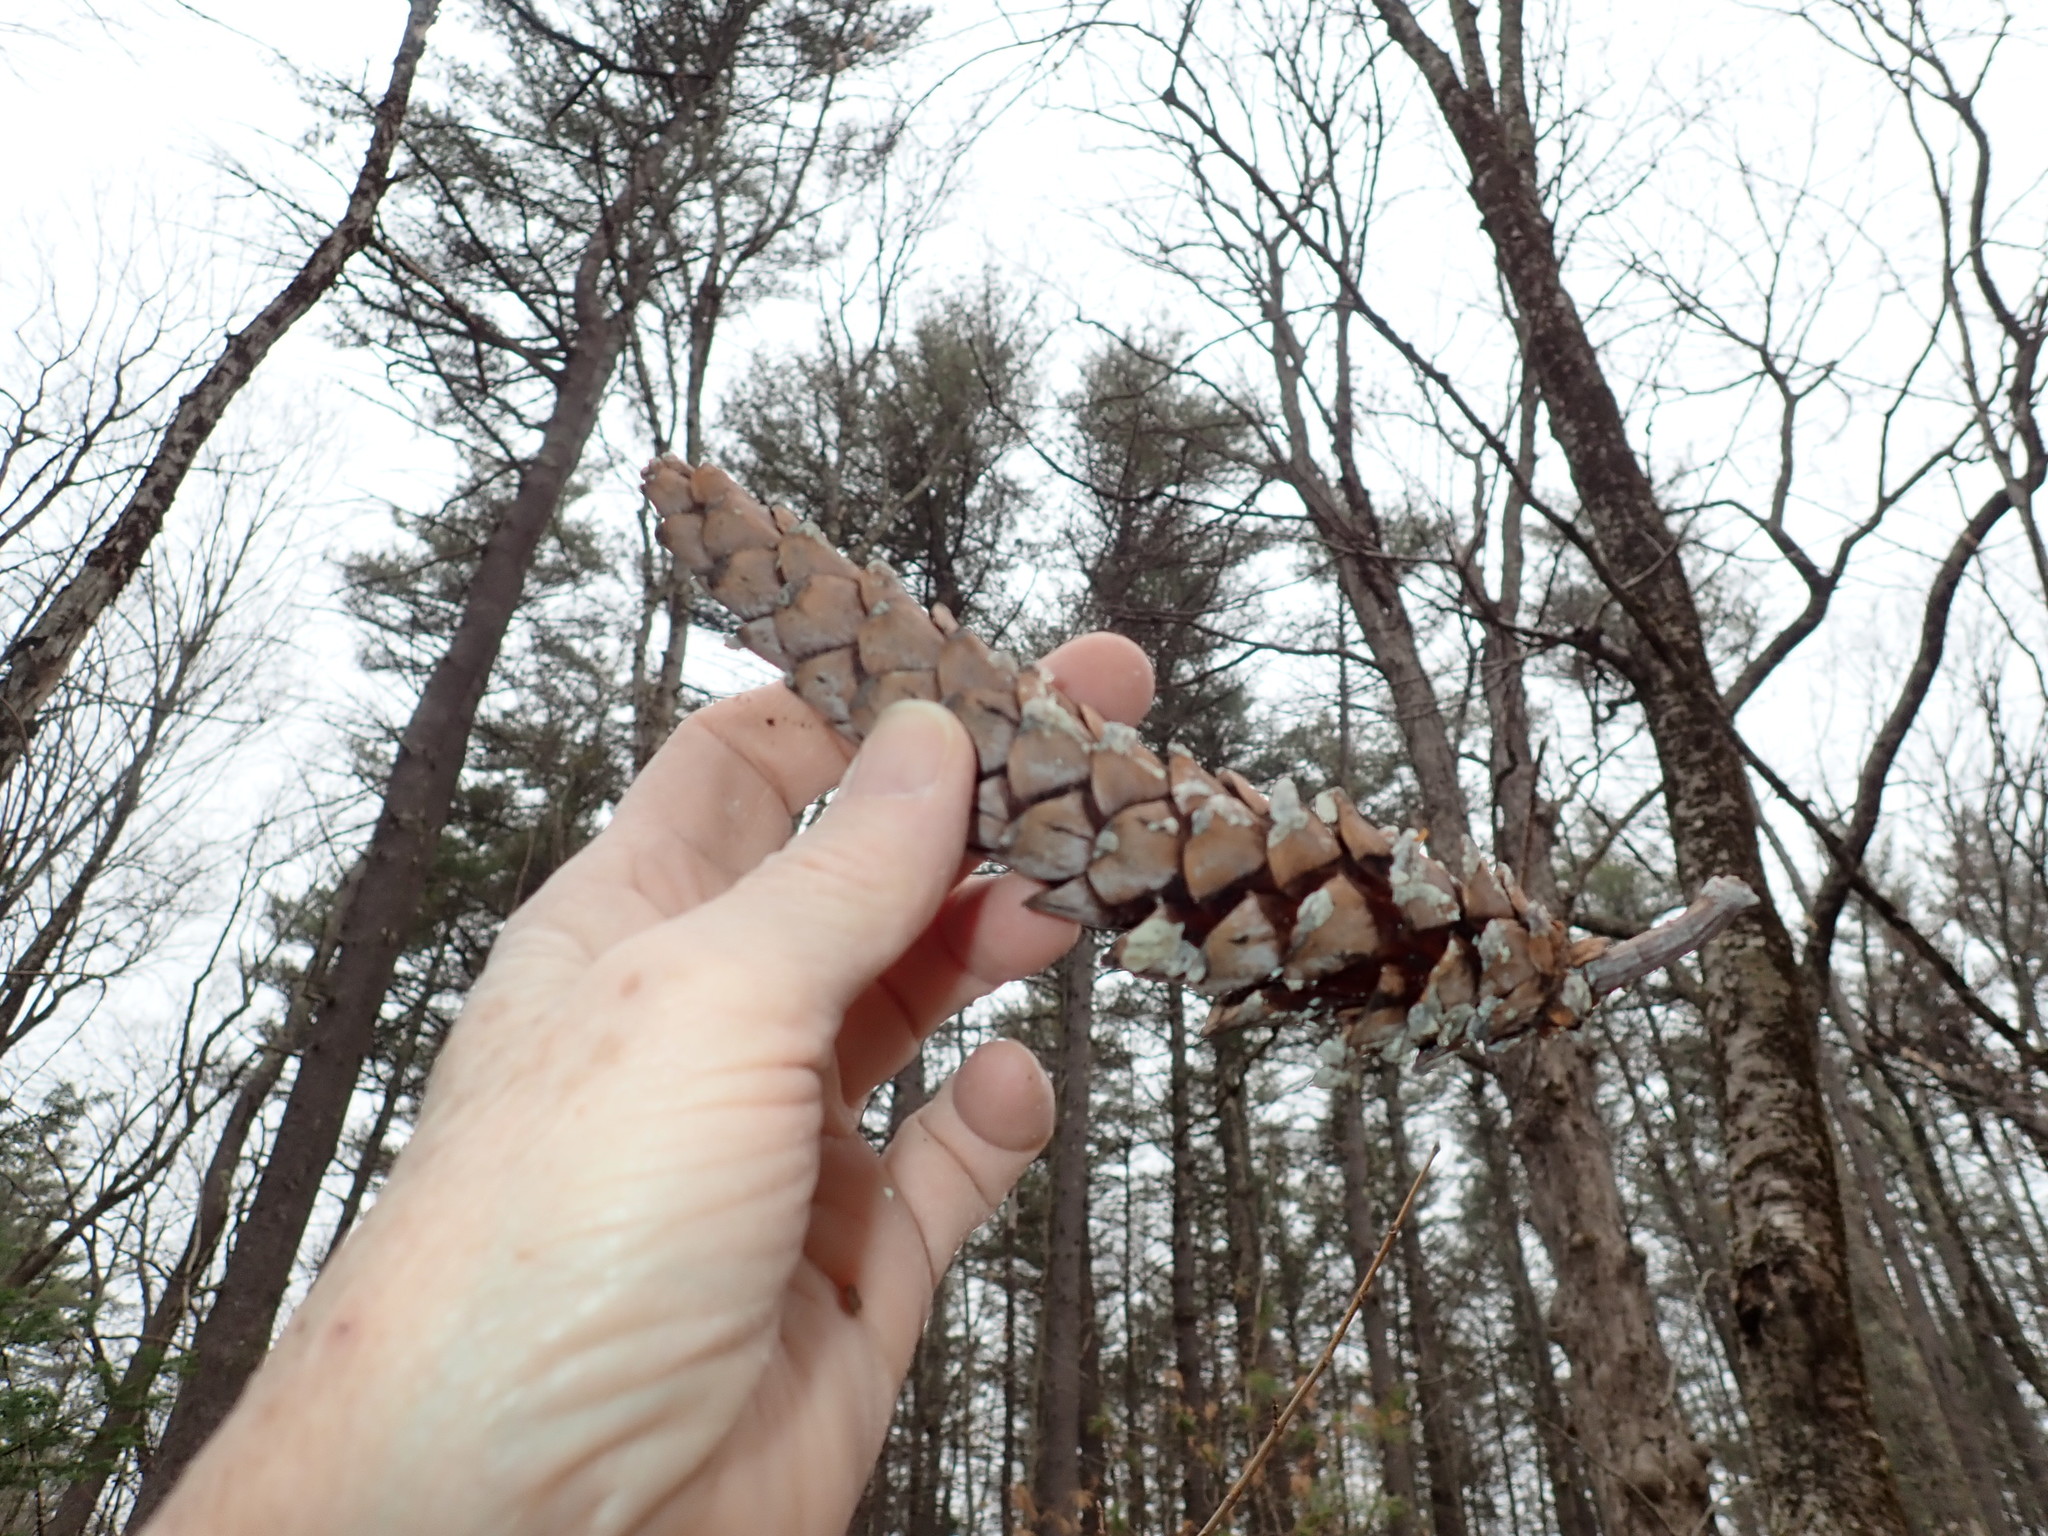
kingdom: Plantae
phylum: Tracheophyta
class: Pinopsida
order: Pinales
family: Pinaceae
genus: Pinus
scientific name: Pinus strobus
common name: Weymouth pine
